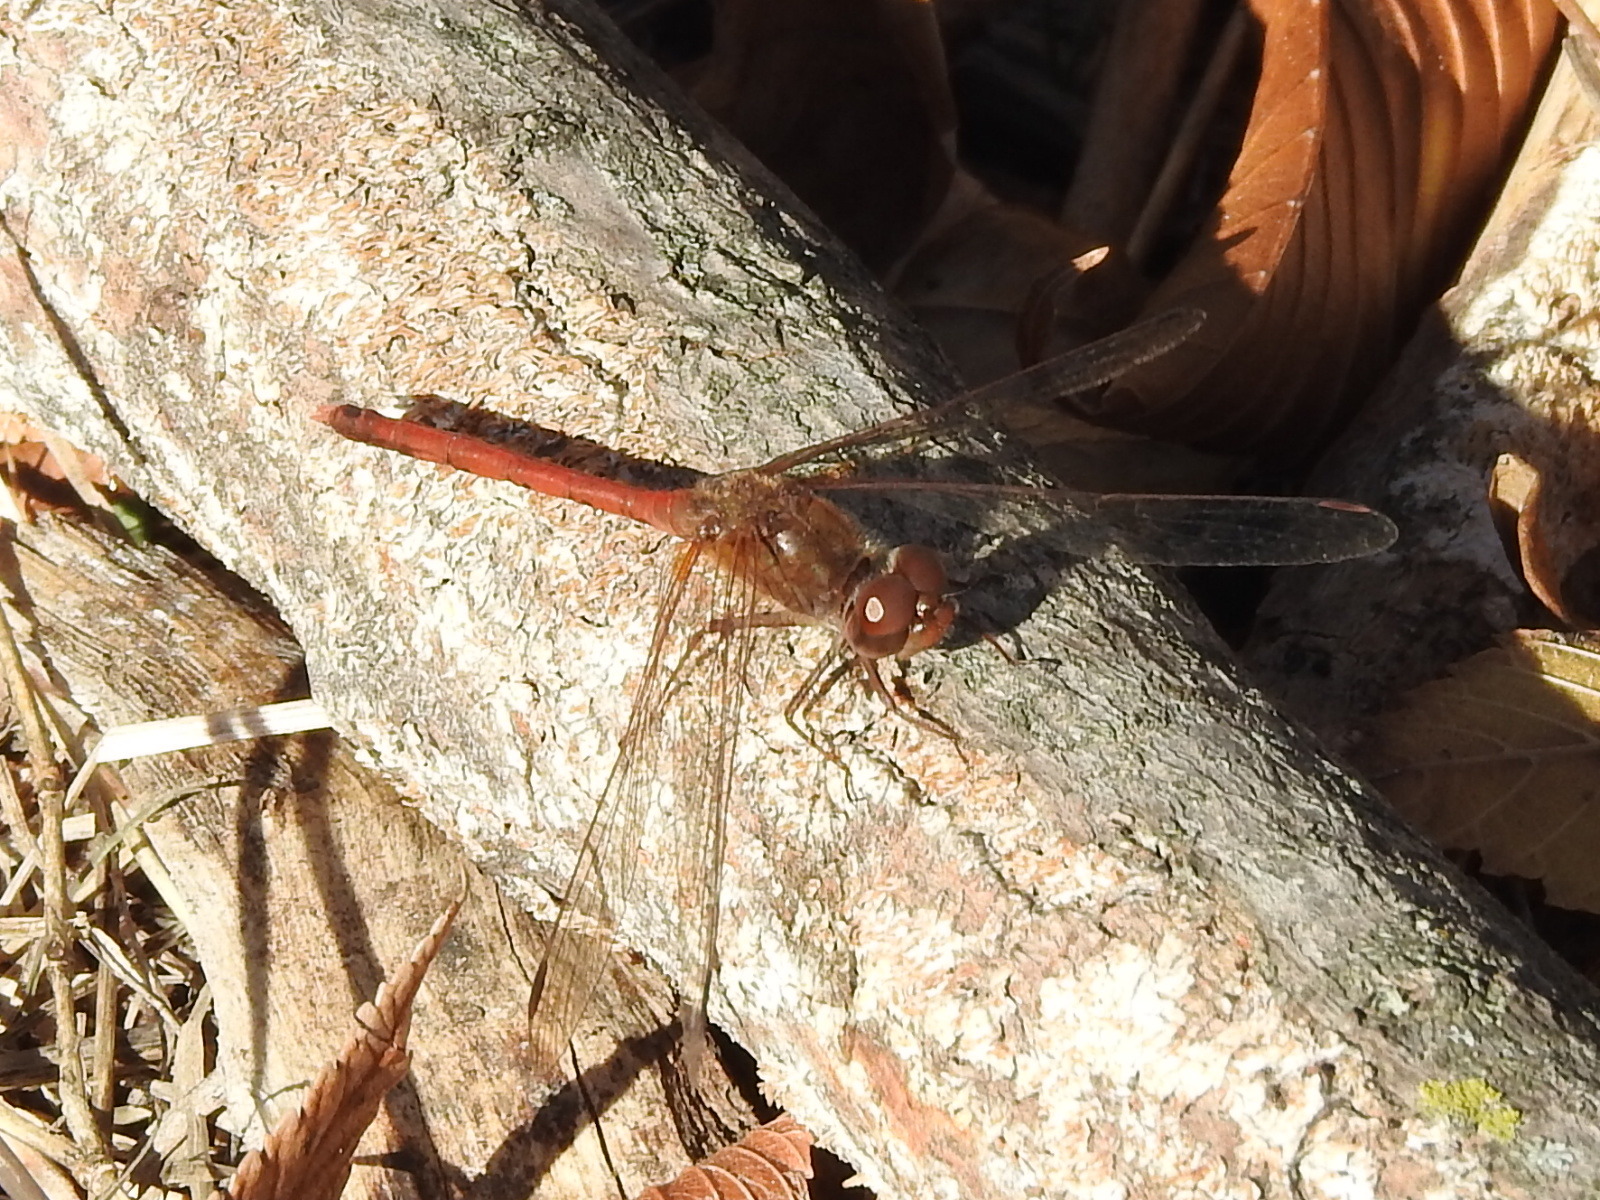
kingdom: Animalia
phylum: Arthropoda
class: Insecta
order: Odonata
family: Libellulidae
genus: Sympetrum
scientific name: Sympetrum vicinum
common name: Autumn meadowhawk
